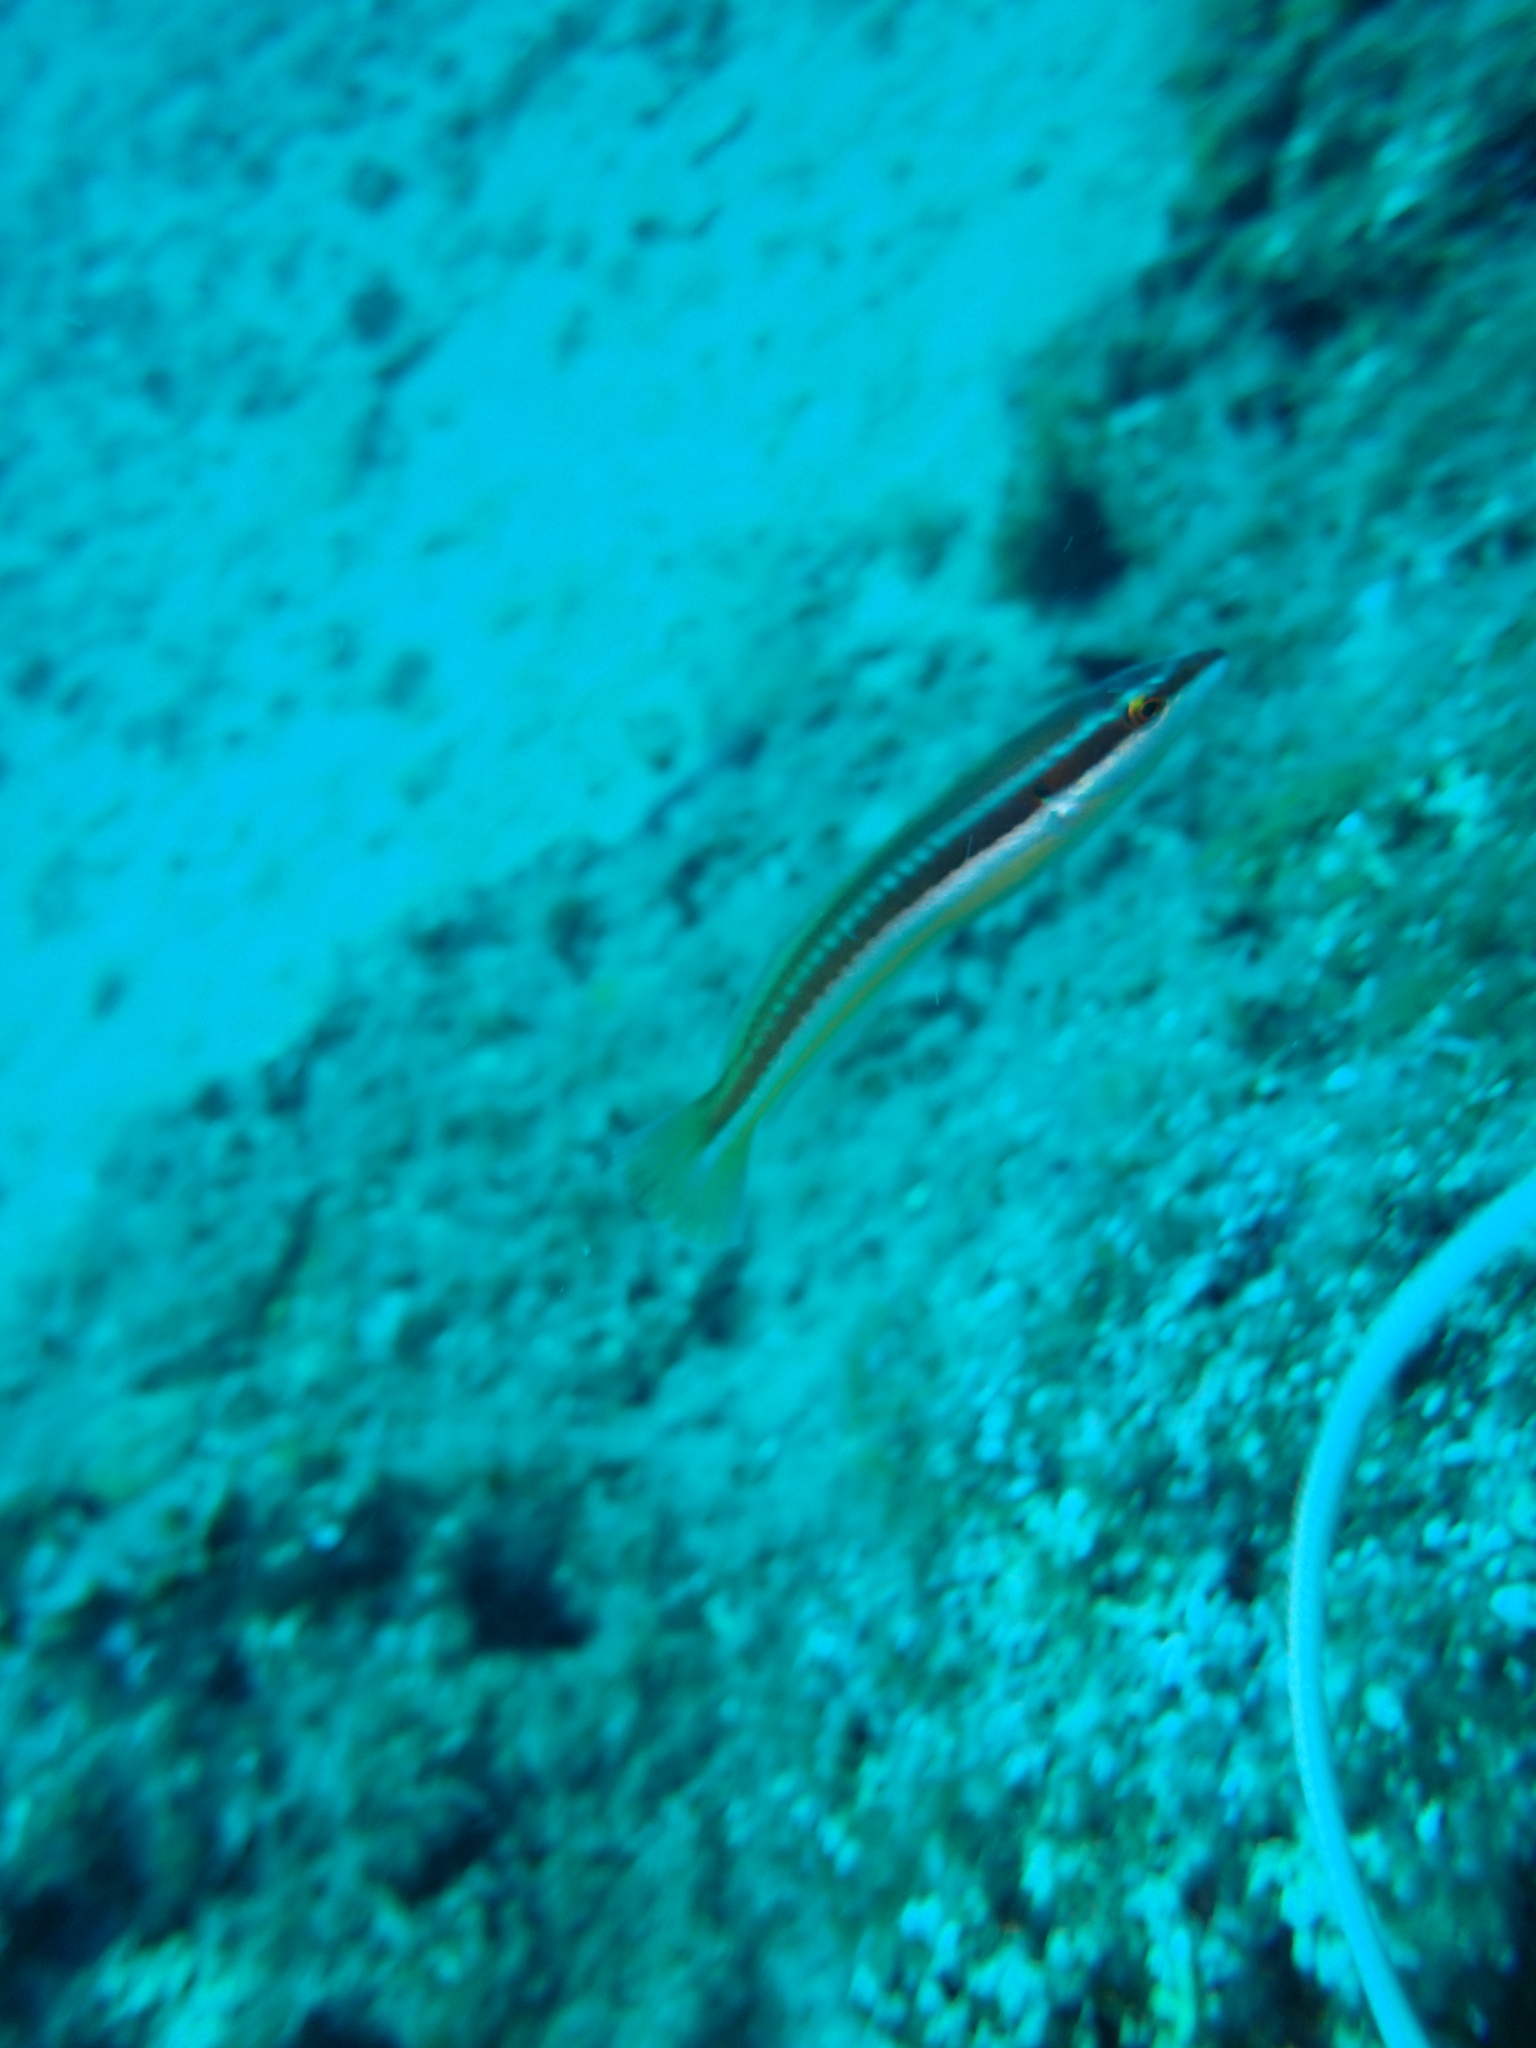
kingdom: Animalia
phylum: Chordata
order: Perciformes
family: Labridae
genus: Coris
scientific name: Coris julis
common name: Rainbow wrasse
